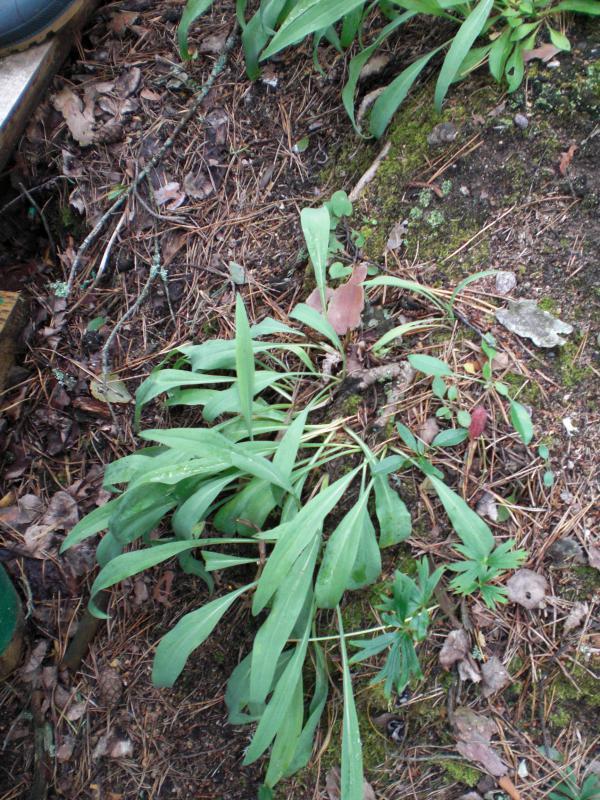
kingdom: Plantae
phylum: Tracheophyta
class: Magnoliopsida
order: Asterales
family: Asteraceae
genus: Scorzonera
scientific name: Scorzonera glabra
